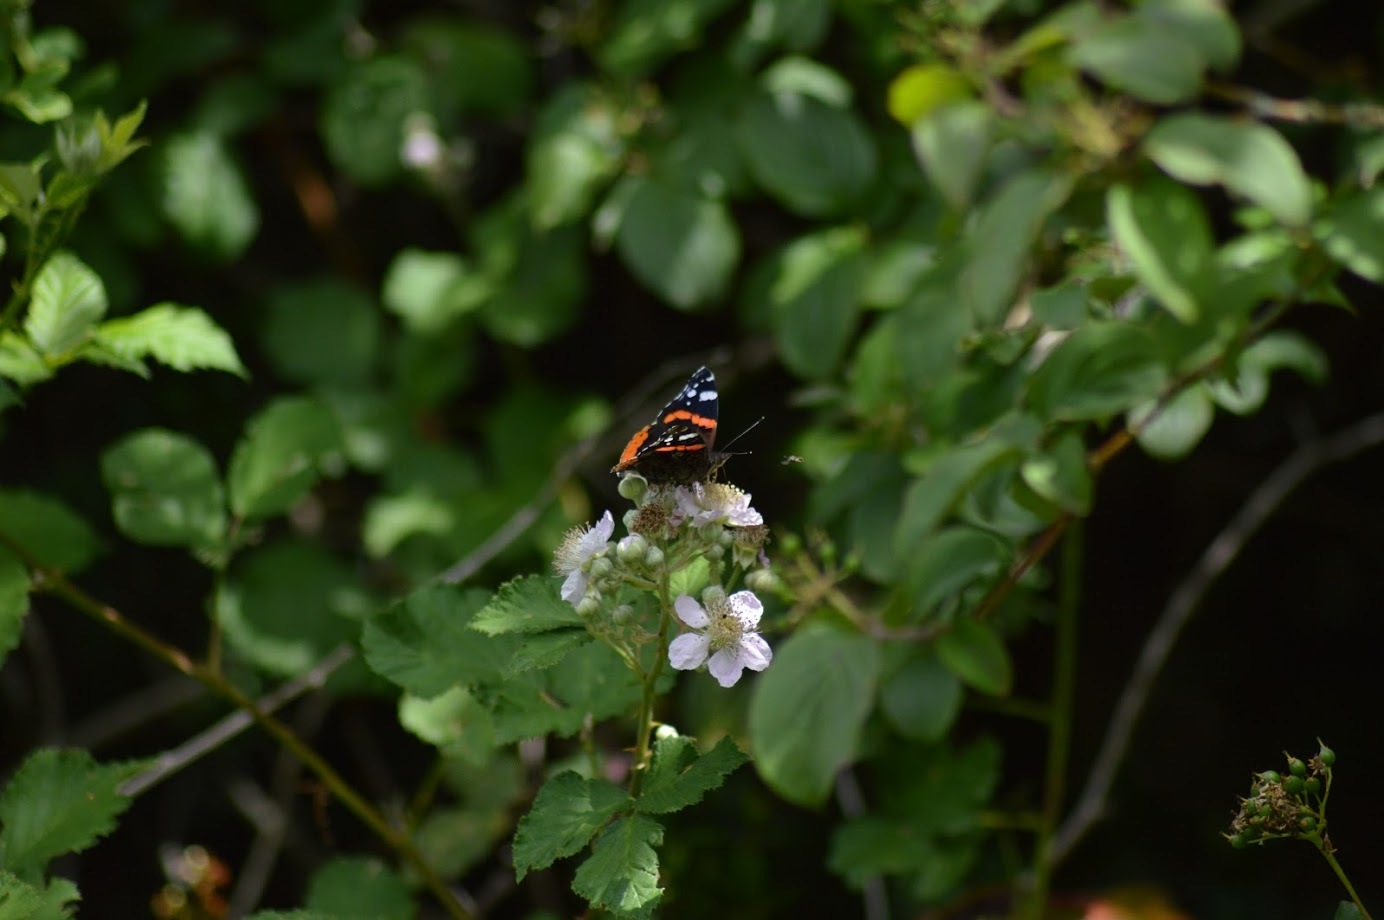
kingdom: Animalia
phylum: Arthropoda
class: Insecta
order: Lepidoptera
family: Nymphalidae
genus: Vanessa
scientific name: Vanessa atalanta
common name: Red admiral
